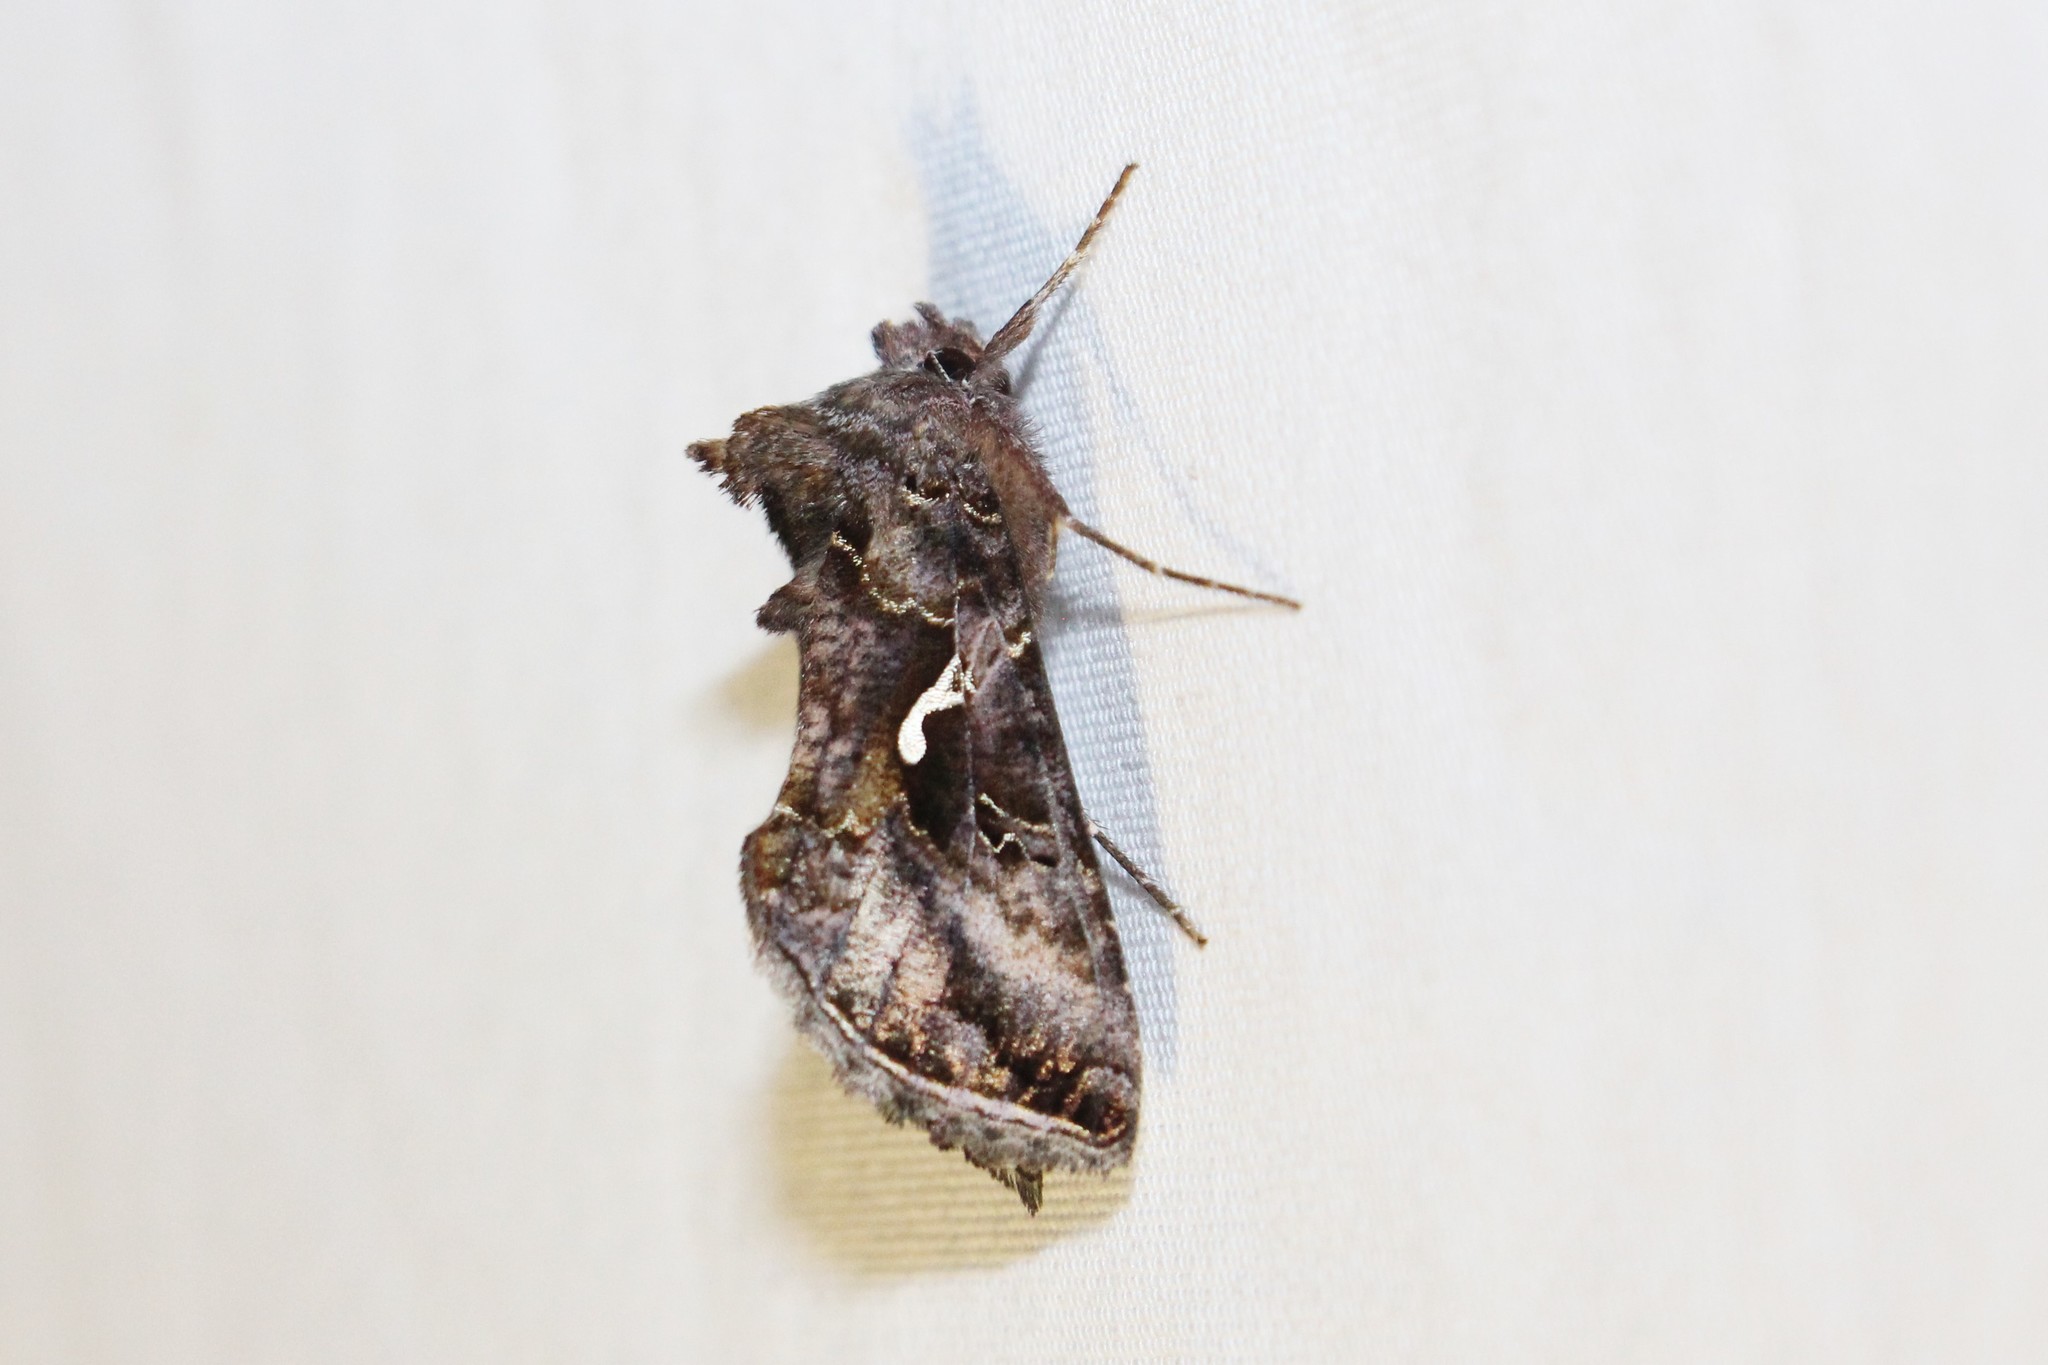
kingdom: Animalia
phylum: Arthropoda
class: Insecta
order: Lepidoptera
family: Noctuidae
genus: Autographa
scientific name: Autographa precationis
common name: Common looper moth
